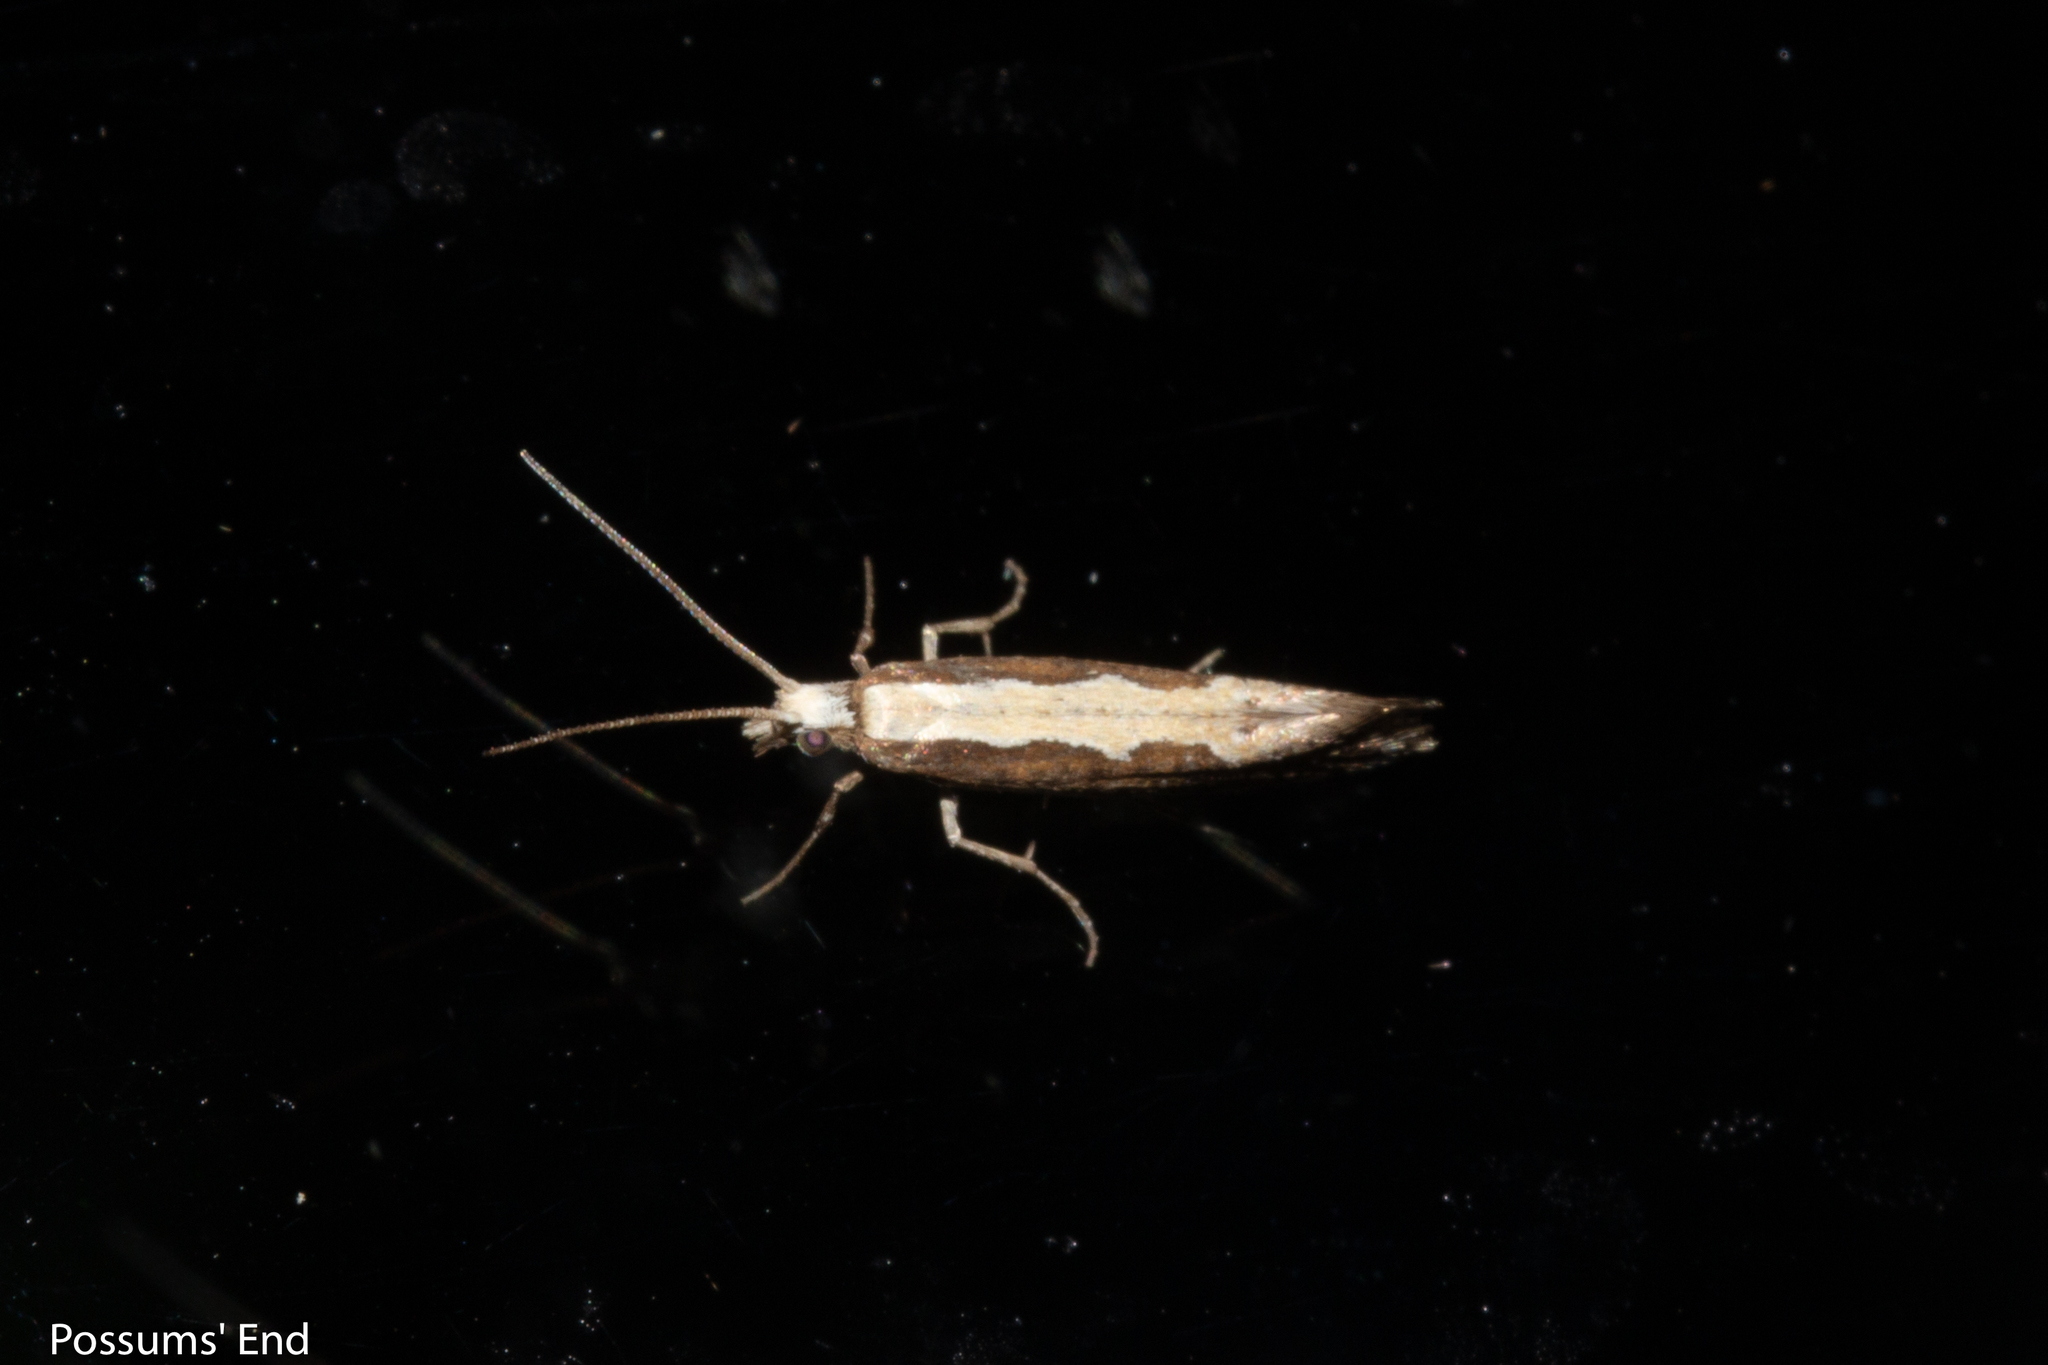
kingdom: Animalia
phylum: Arthropoda
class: Insecta
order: Lepidoptera
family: Plutellidae
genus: Plutella
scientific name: Plutella xylostella
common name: Diamond-back moth
